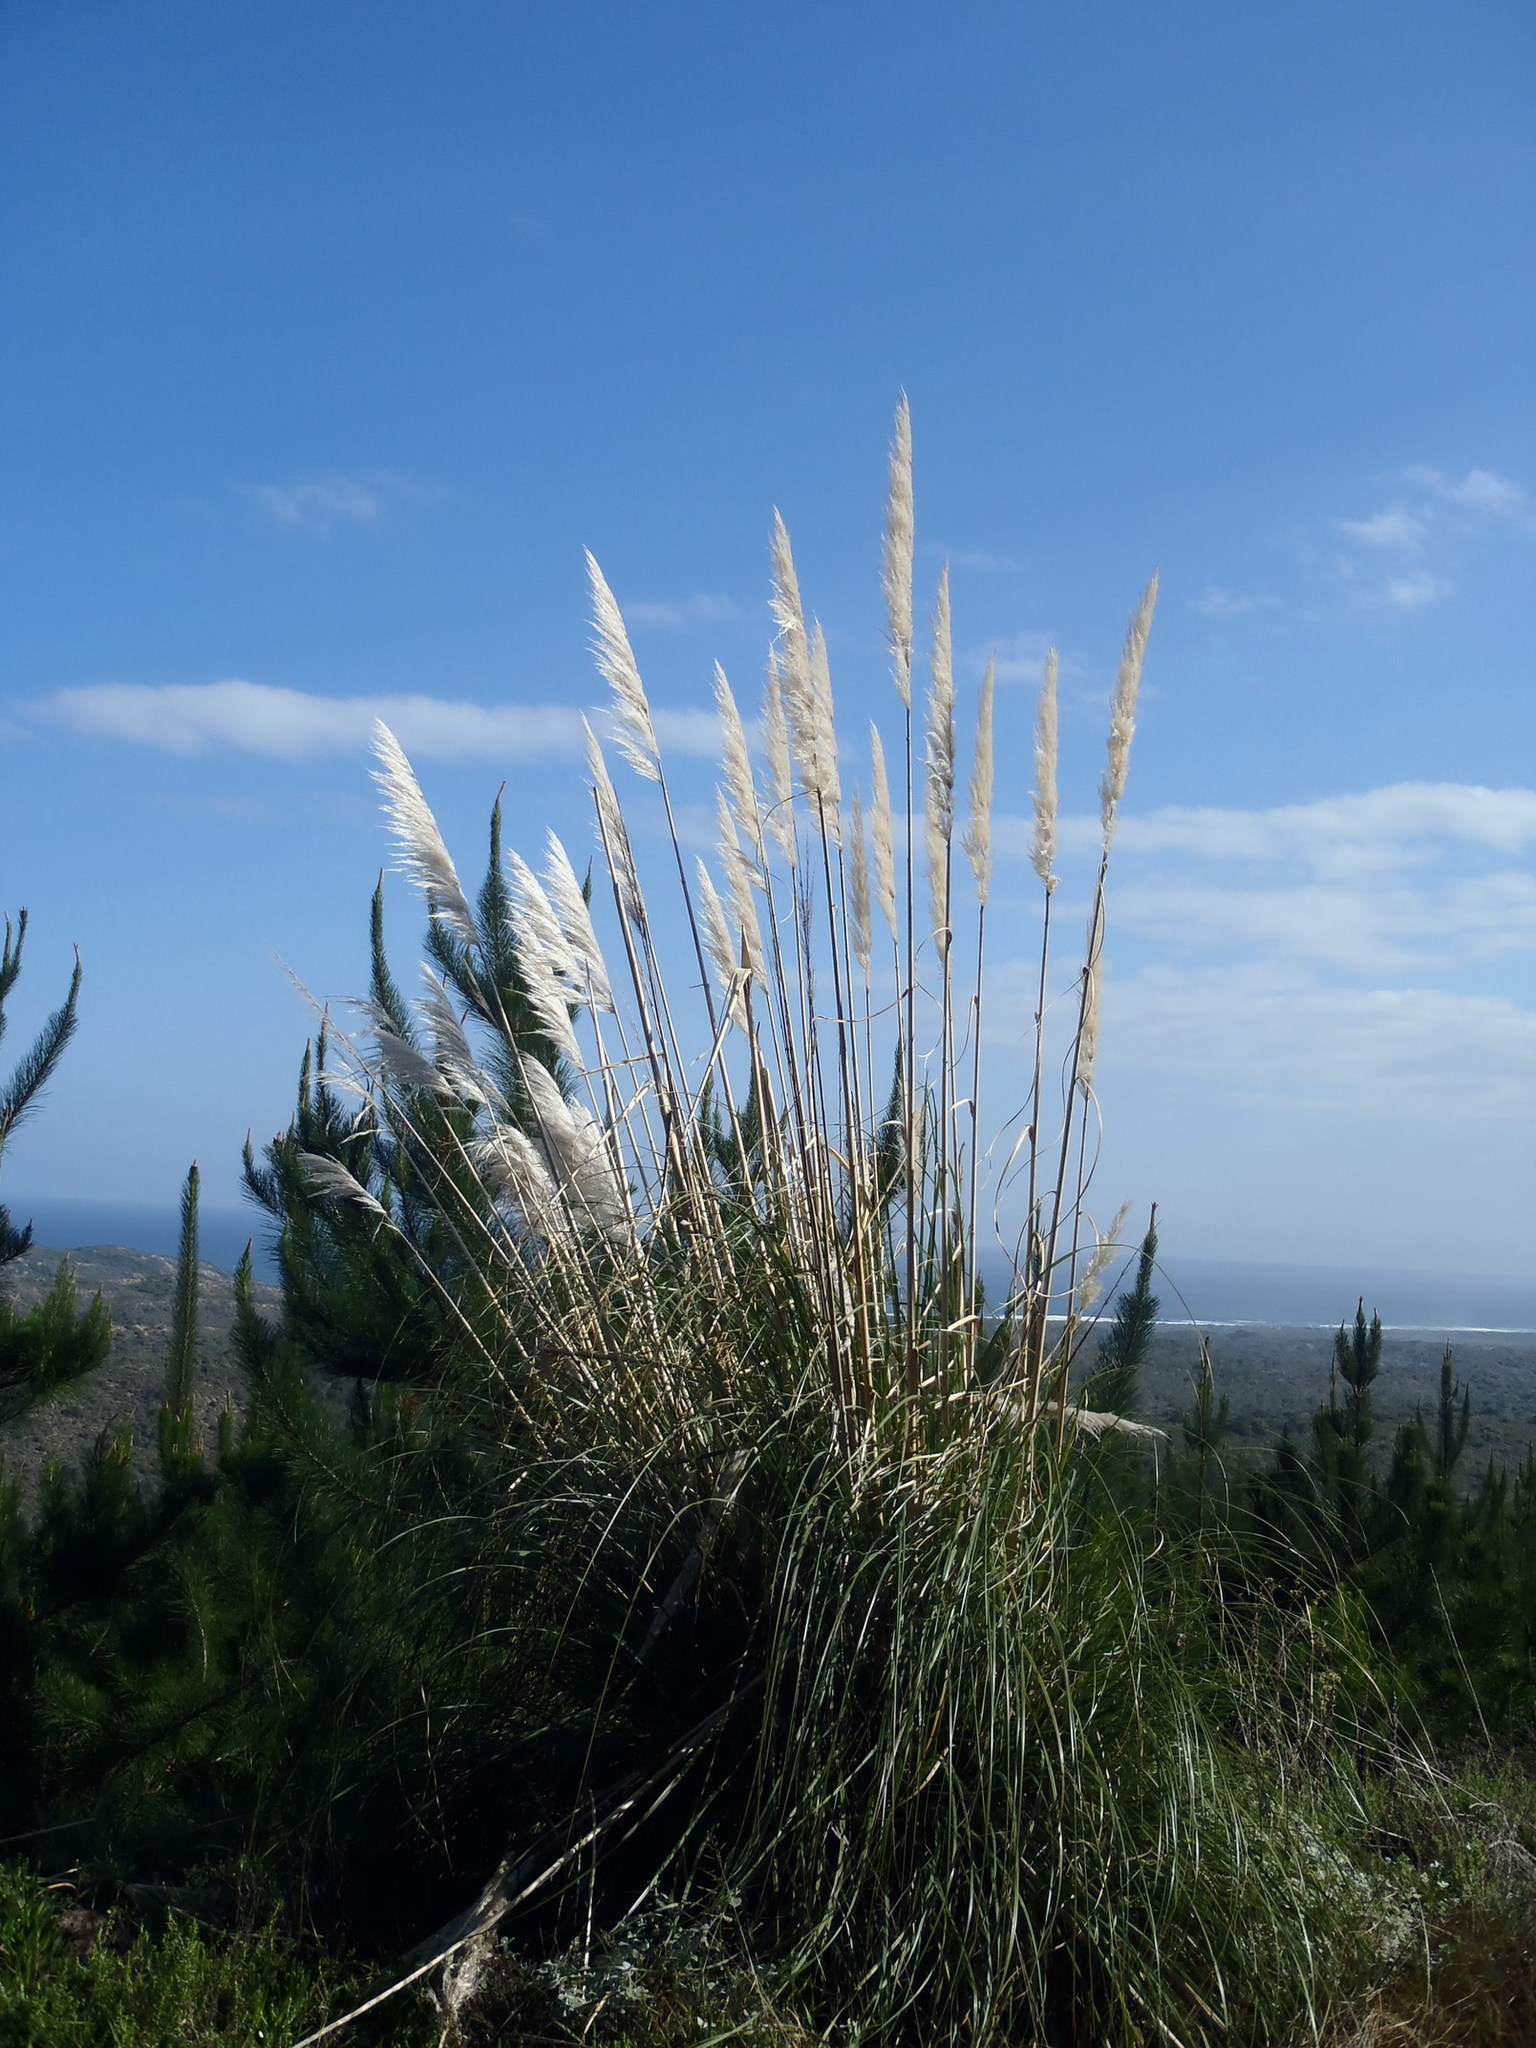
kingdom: Plantae
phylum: Tracheophyta
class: Liliopsida
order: Poales
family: Poaceae
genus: Cortaderia
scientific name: Cortaderia selloana
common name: Uruguayan pampas grass
